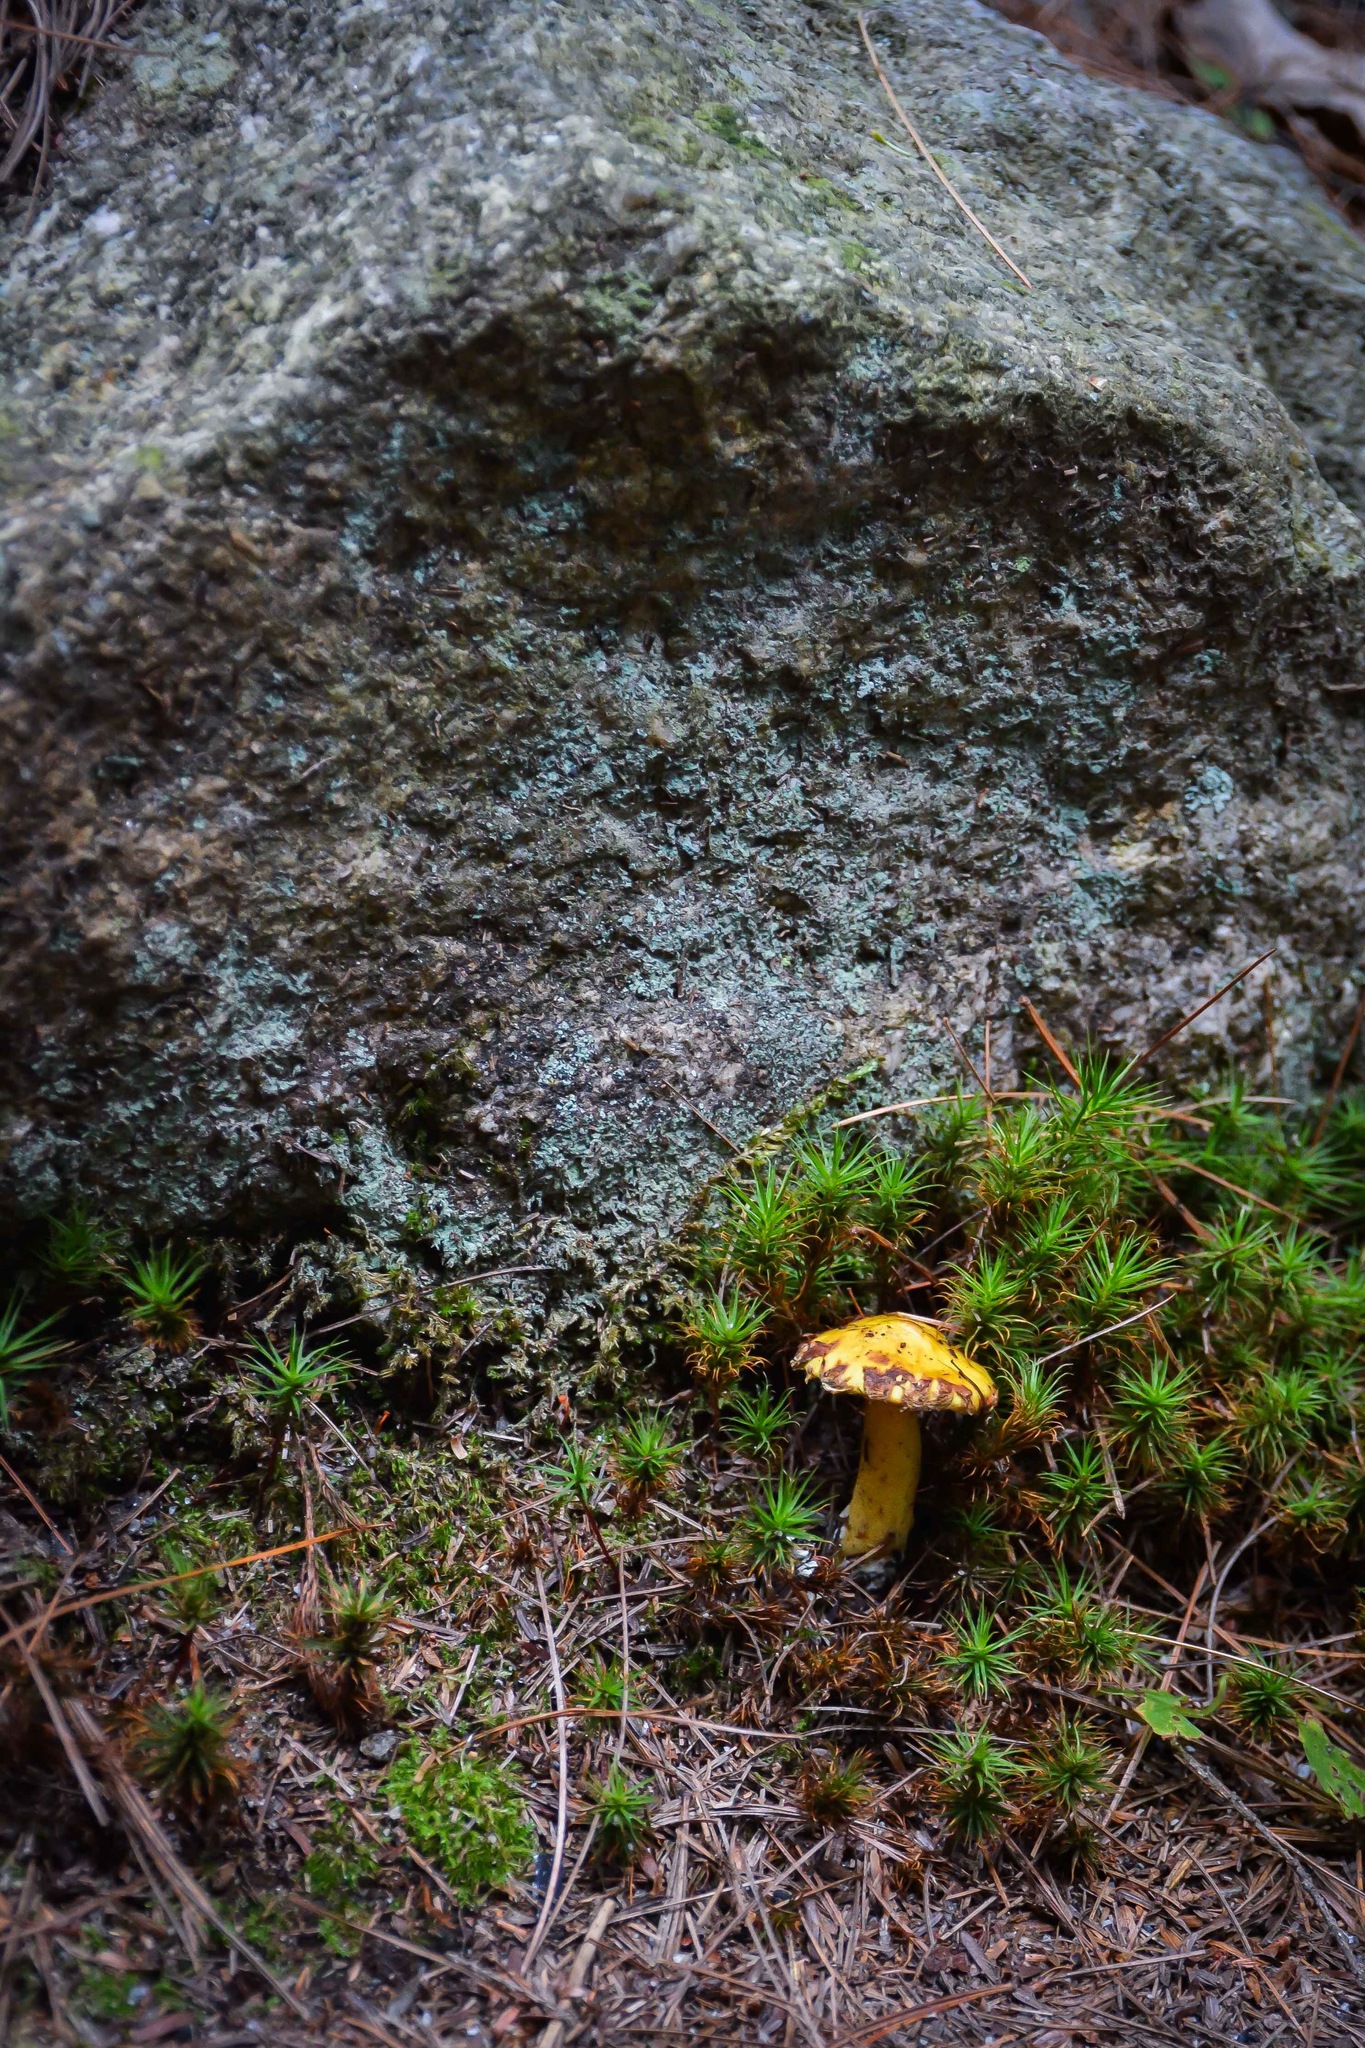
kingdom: Fungi
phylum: Basidiomycota
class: Agaricomycetes
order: Boletales
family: Suillaceae
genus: Suillus
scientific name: Suillus americanus
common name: Chicken fat mushroom
